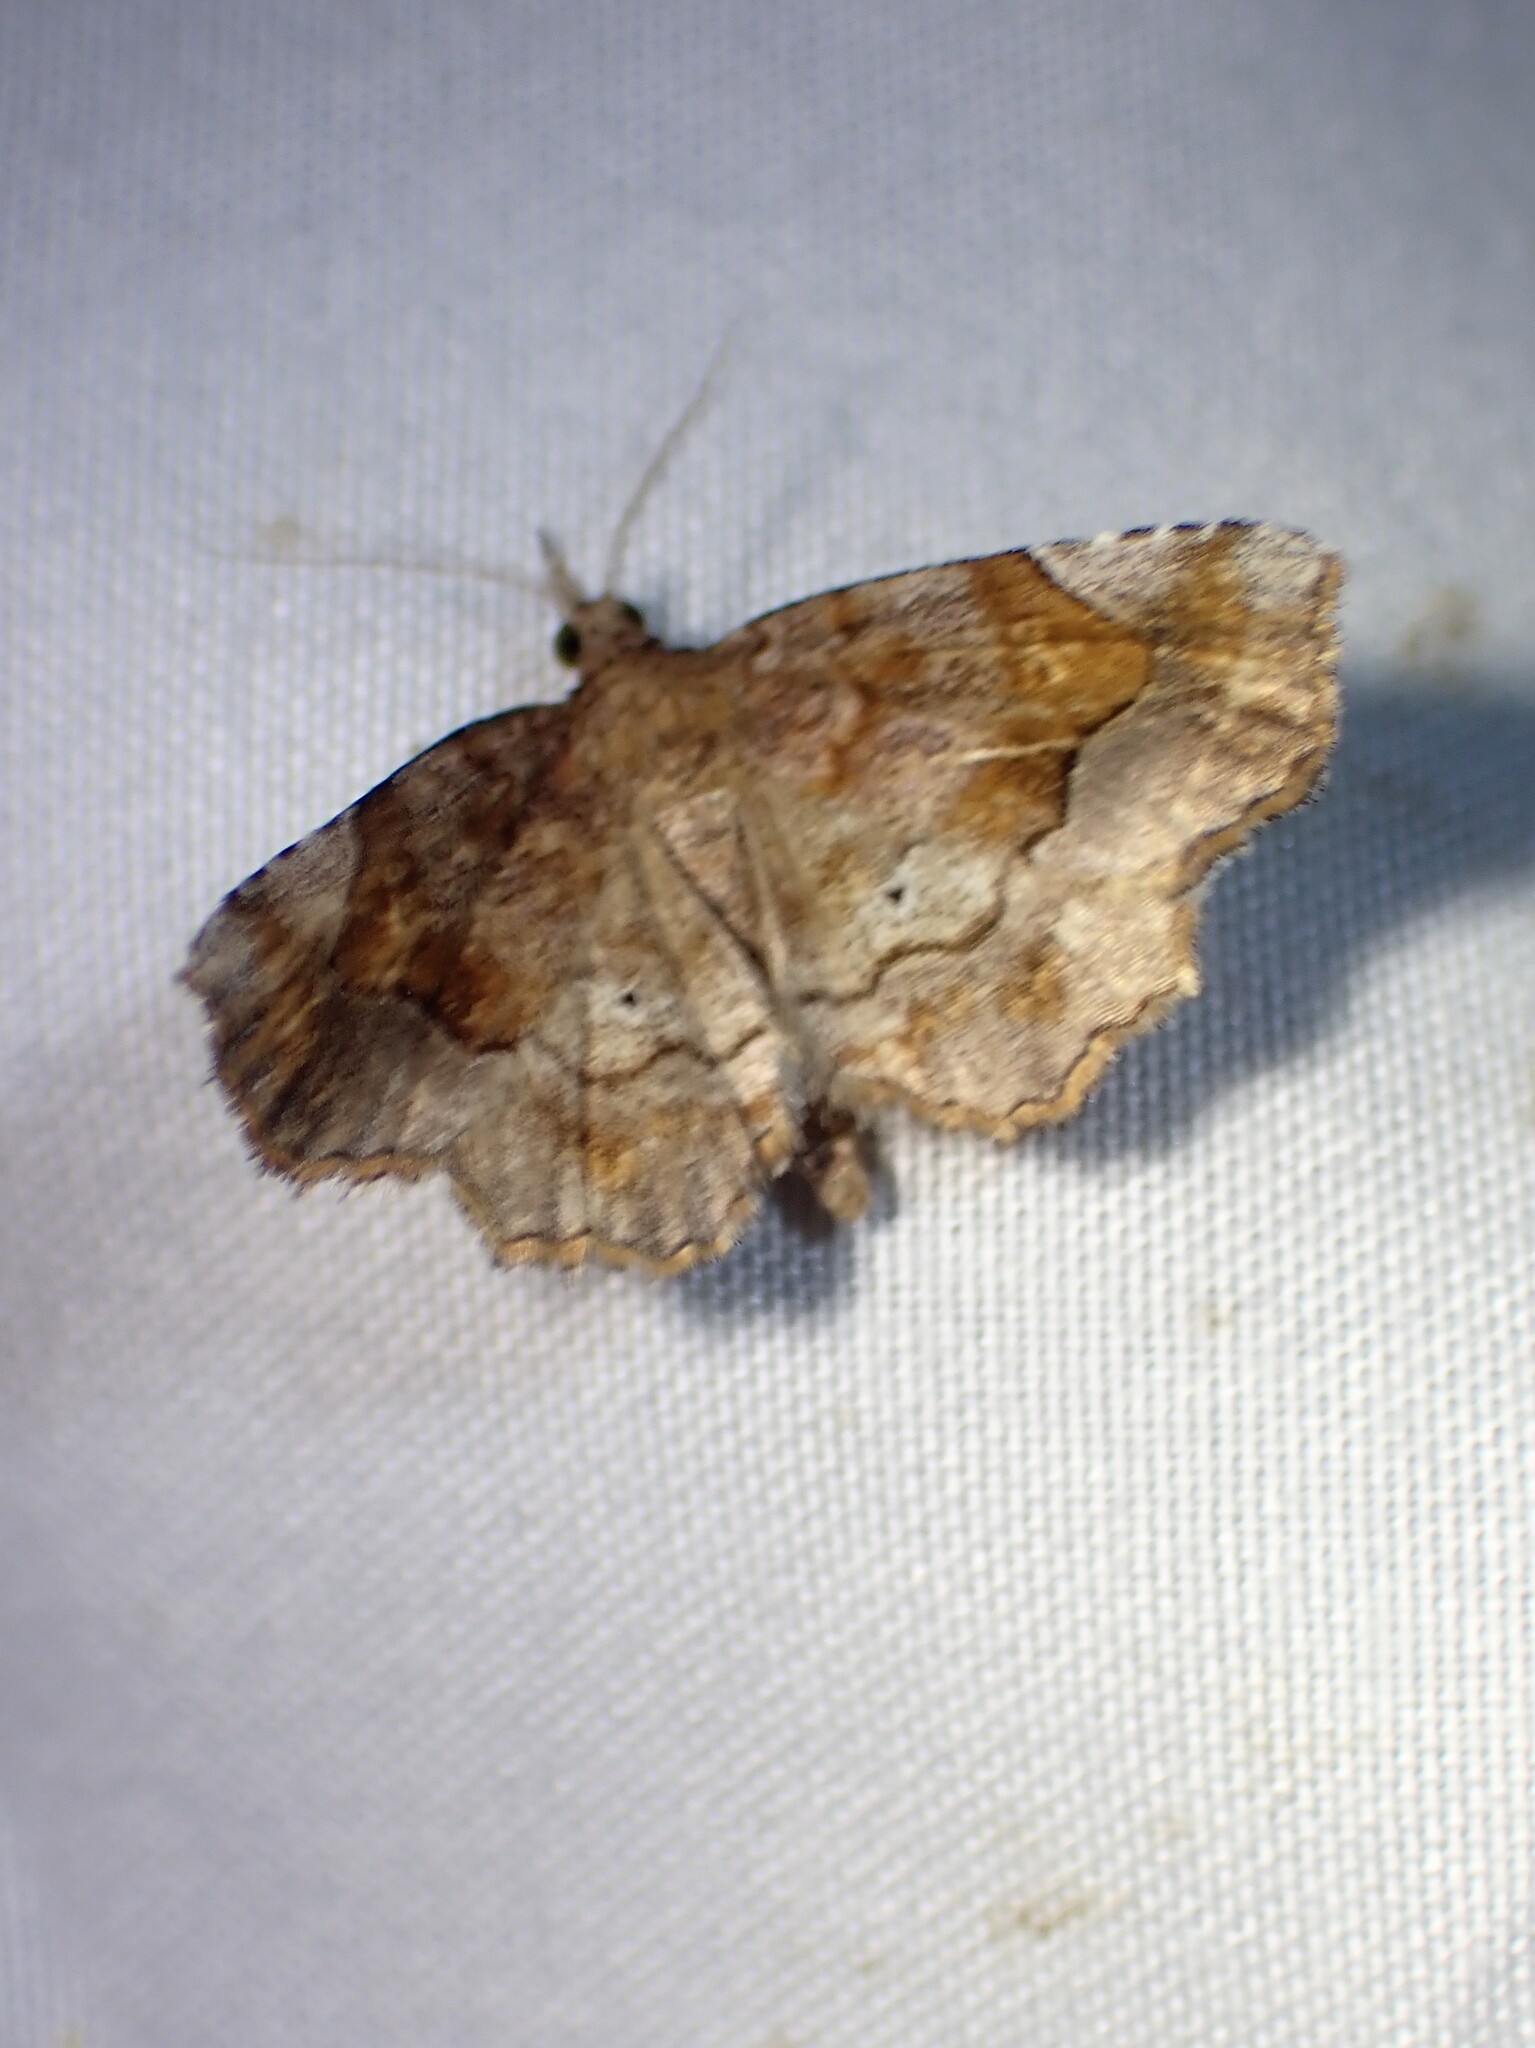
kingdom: Animalia
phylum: Arthropoda
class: Insecta
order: Lepidoptera
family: Erebidae
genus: Pangrapta
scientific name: Pangrapta decoralis
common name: Decorated owlet
